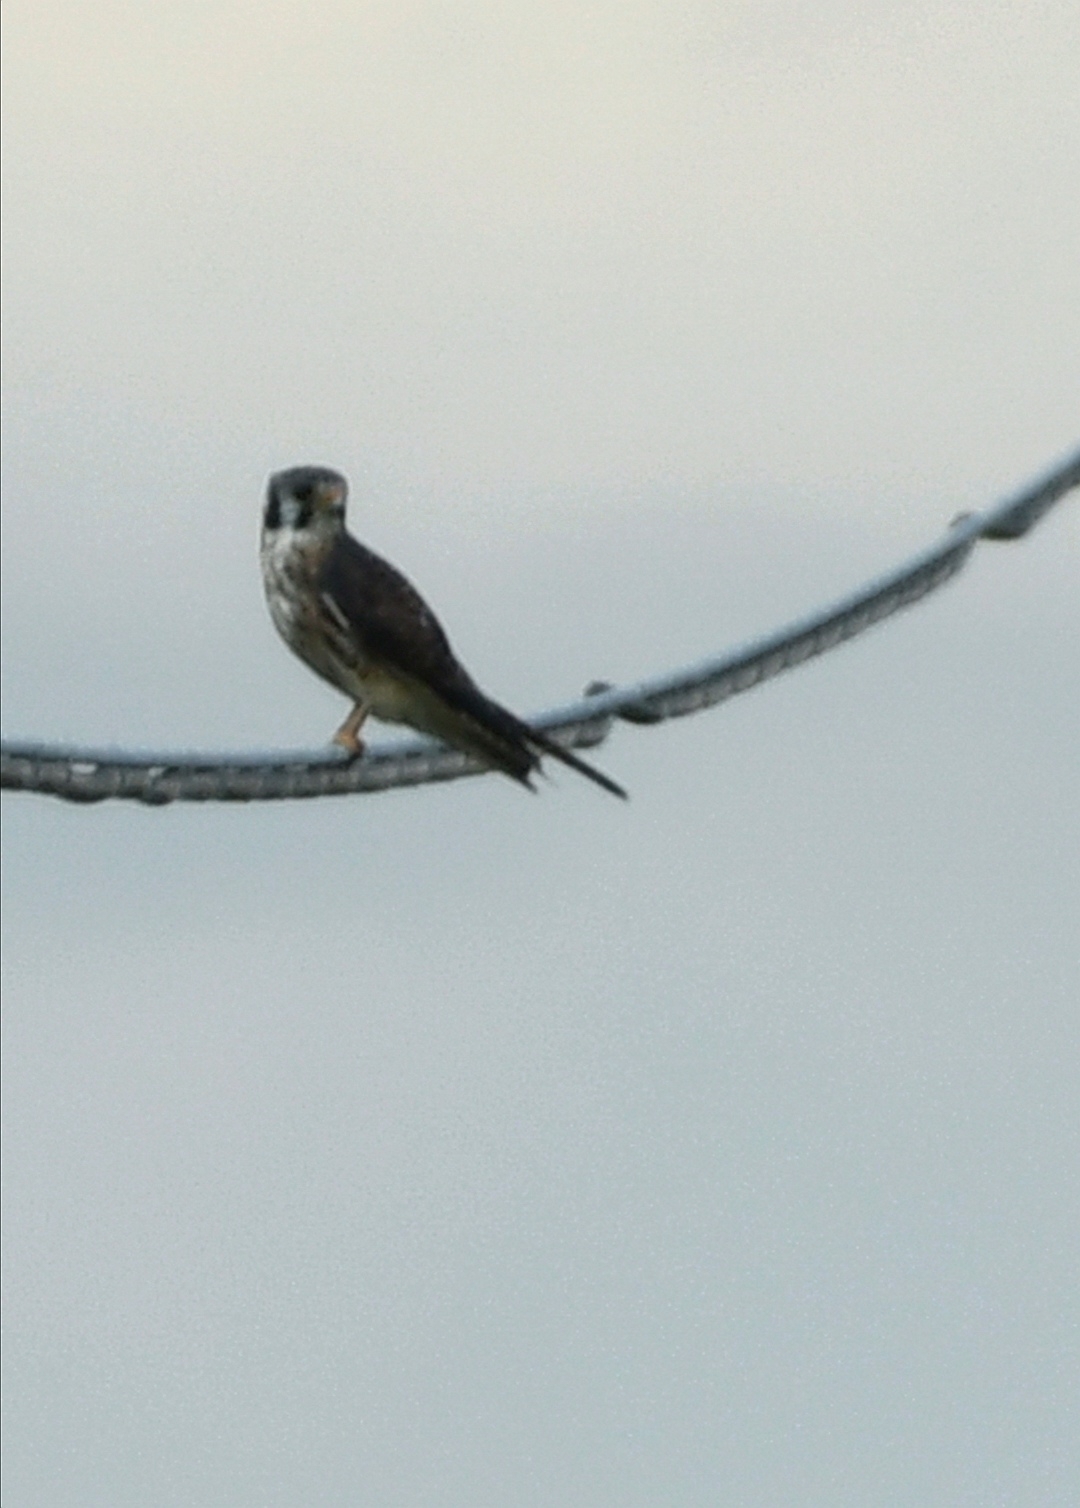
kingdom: Animalia
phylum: Chordata
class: Aves
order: Falconiformes
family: Falconidae
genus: Falco
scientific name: Falco sparverius
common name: American kestrel
